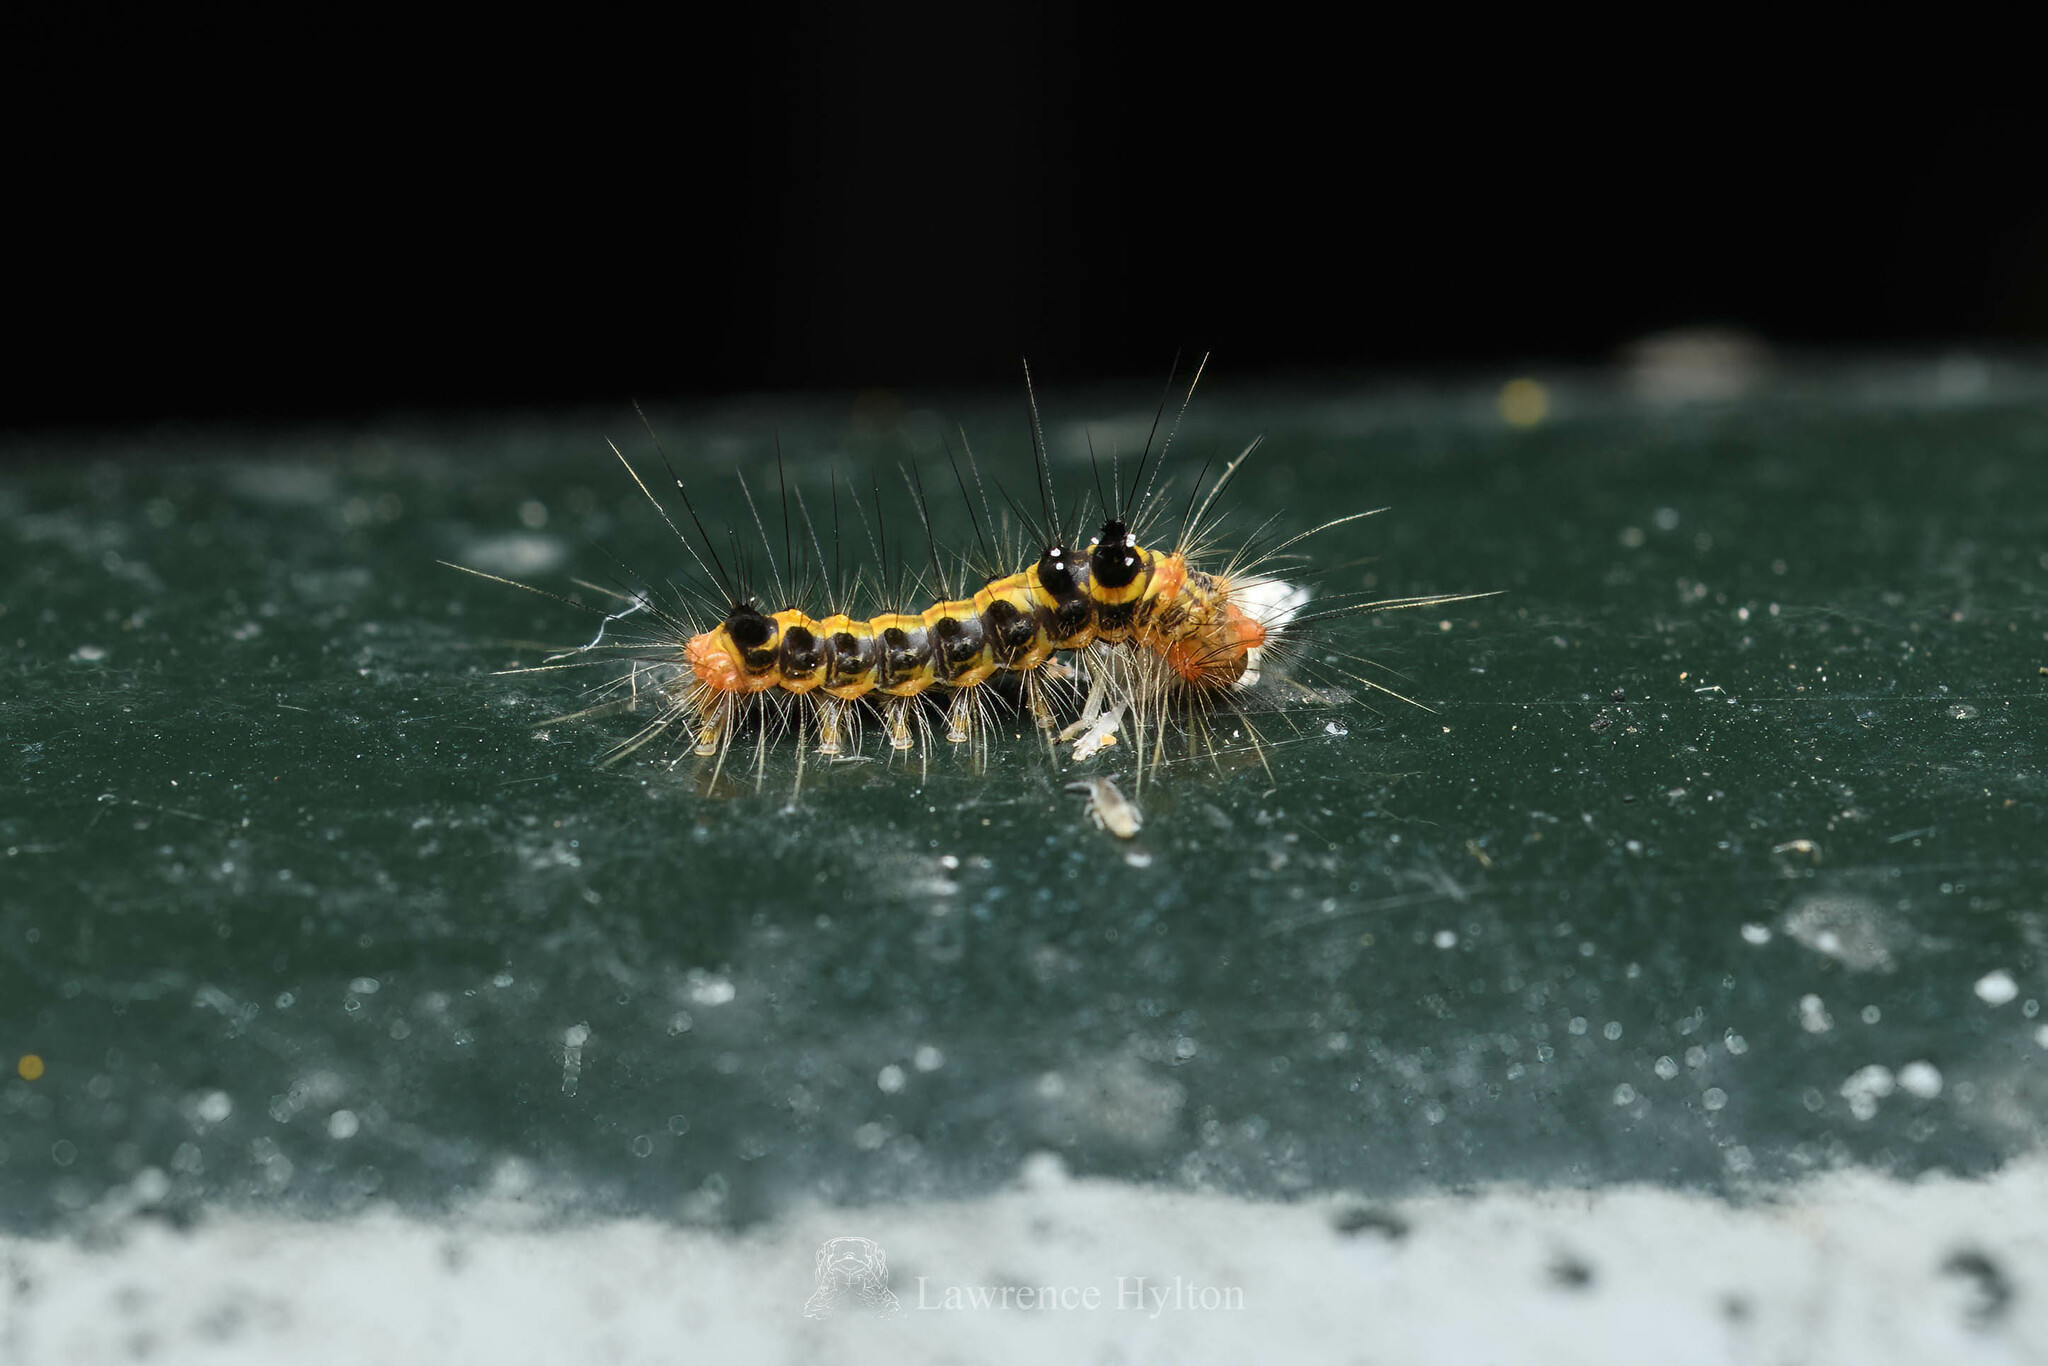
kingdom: Animalia
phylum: Arthropoda
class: Insecta
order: Lepidoptera
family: Erebidae
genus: Orvasca
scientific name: Orvasca subnotata
